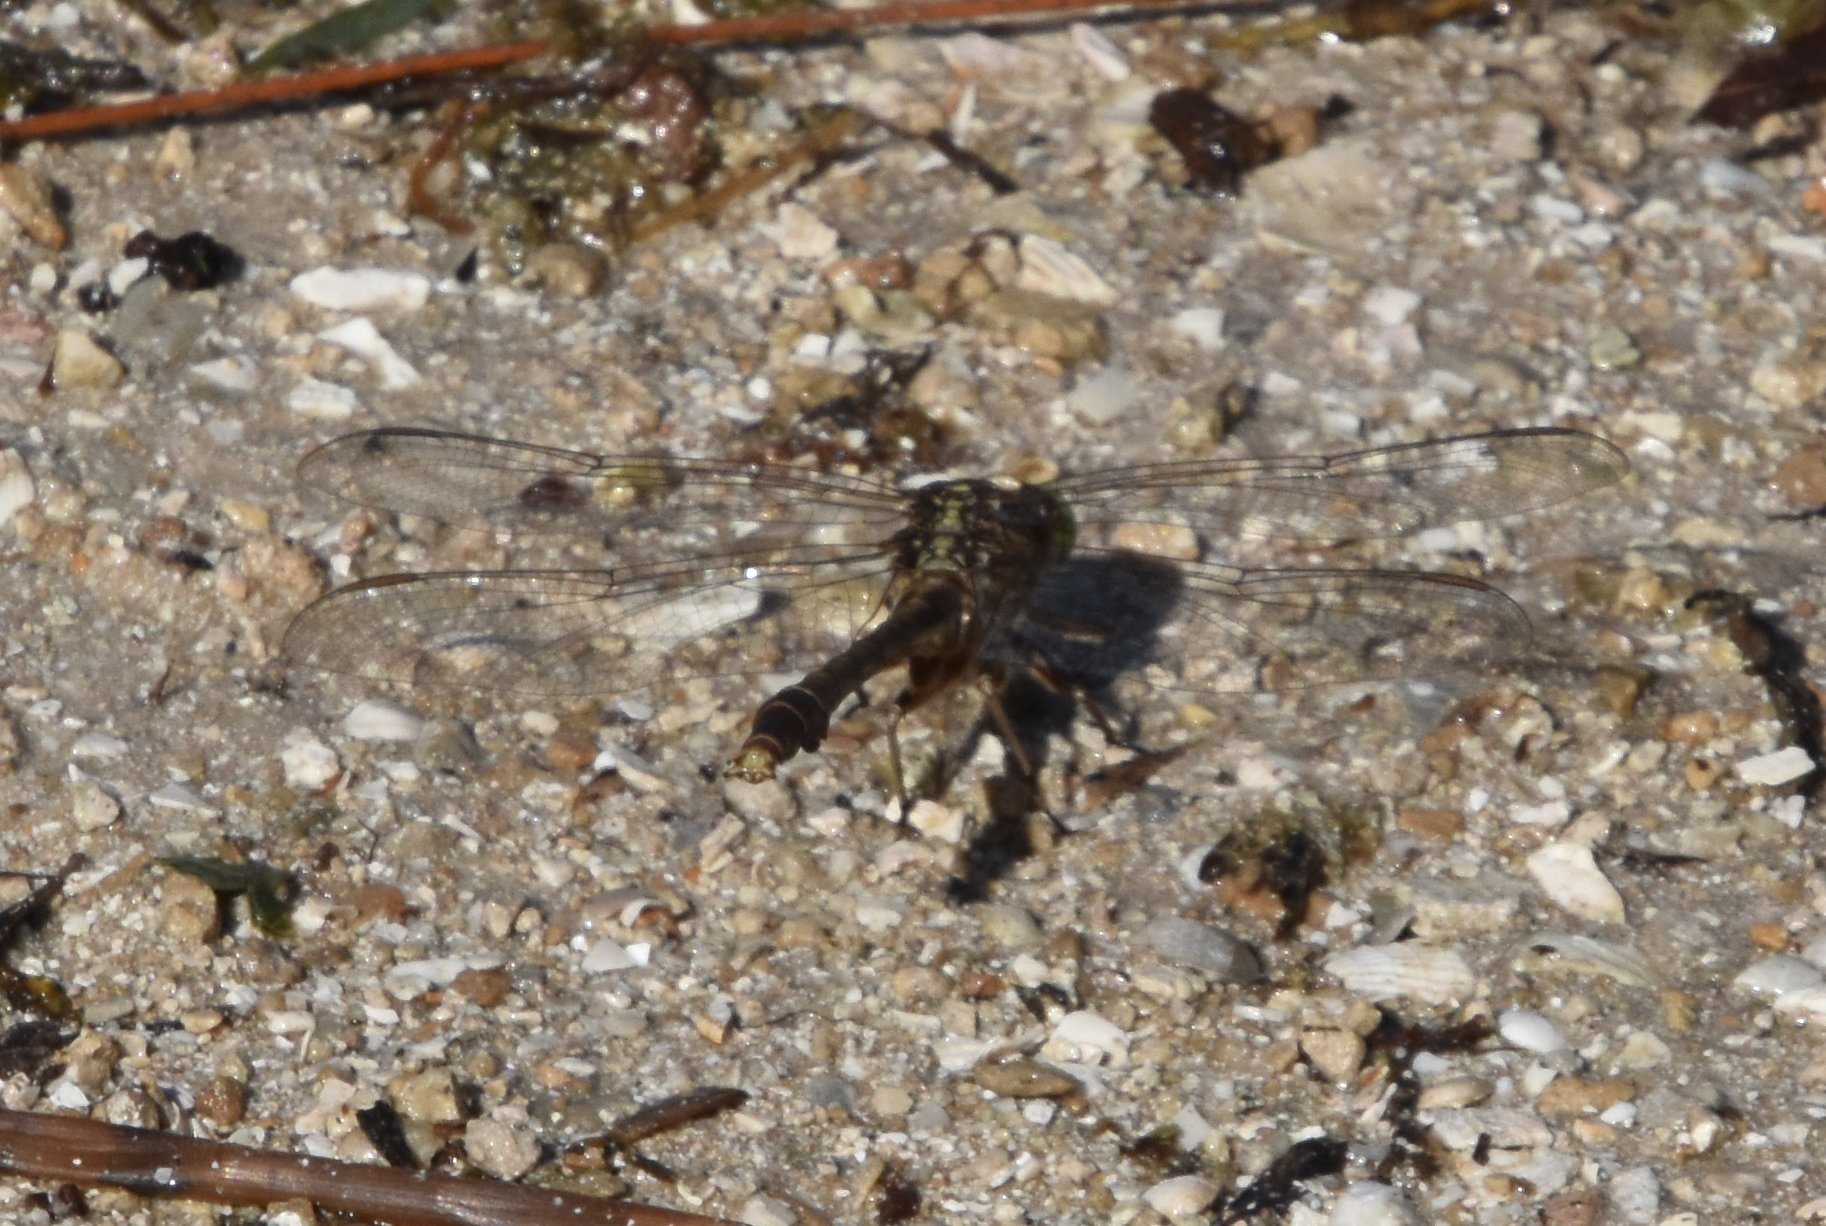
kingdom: Animalia
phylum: Arthropoda
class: Insecta
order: Odonata
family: Gomphidae
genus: Arigomphus
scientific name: Arigomphus pallidus
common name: Gray-green clubtail
